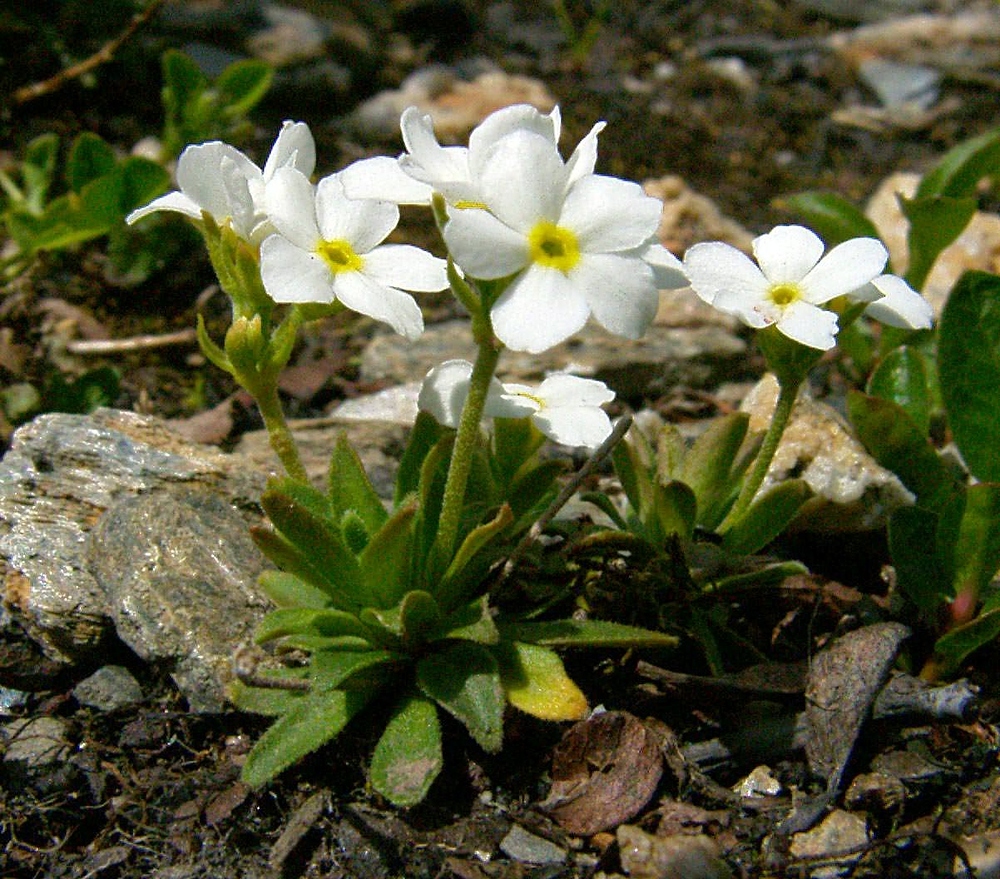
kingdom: Plantae
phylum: Tracheophyta
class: Magnoliopsida
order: Ericales
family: Primulaceae
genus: Androsace
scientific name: Androsace obtusifolia
